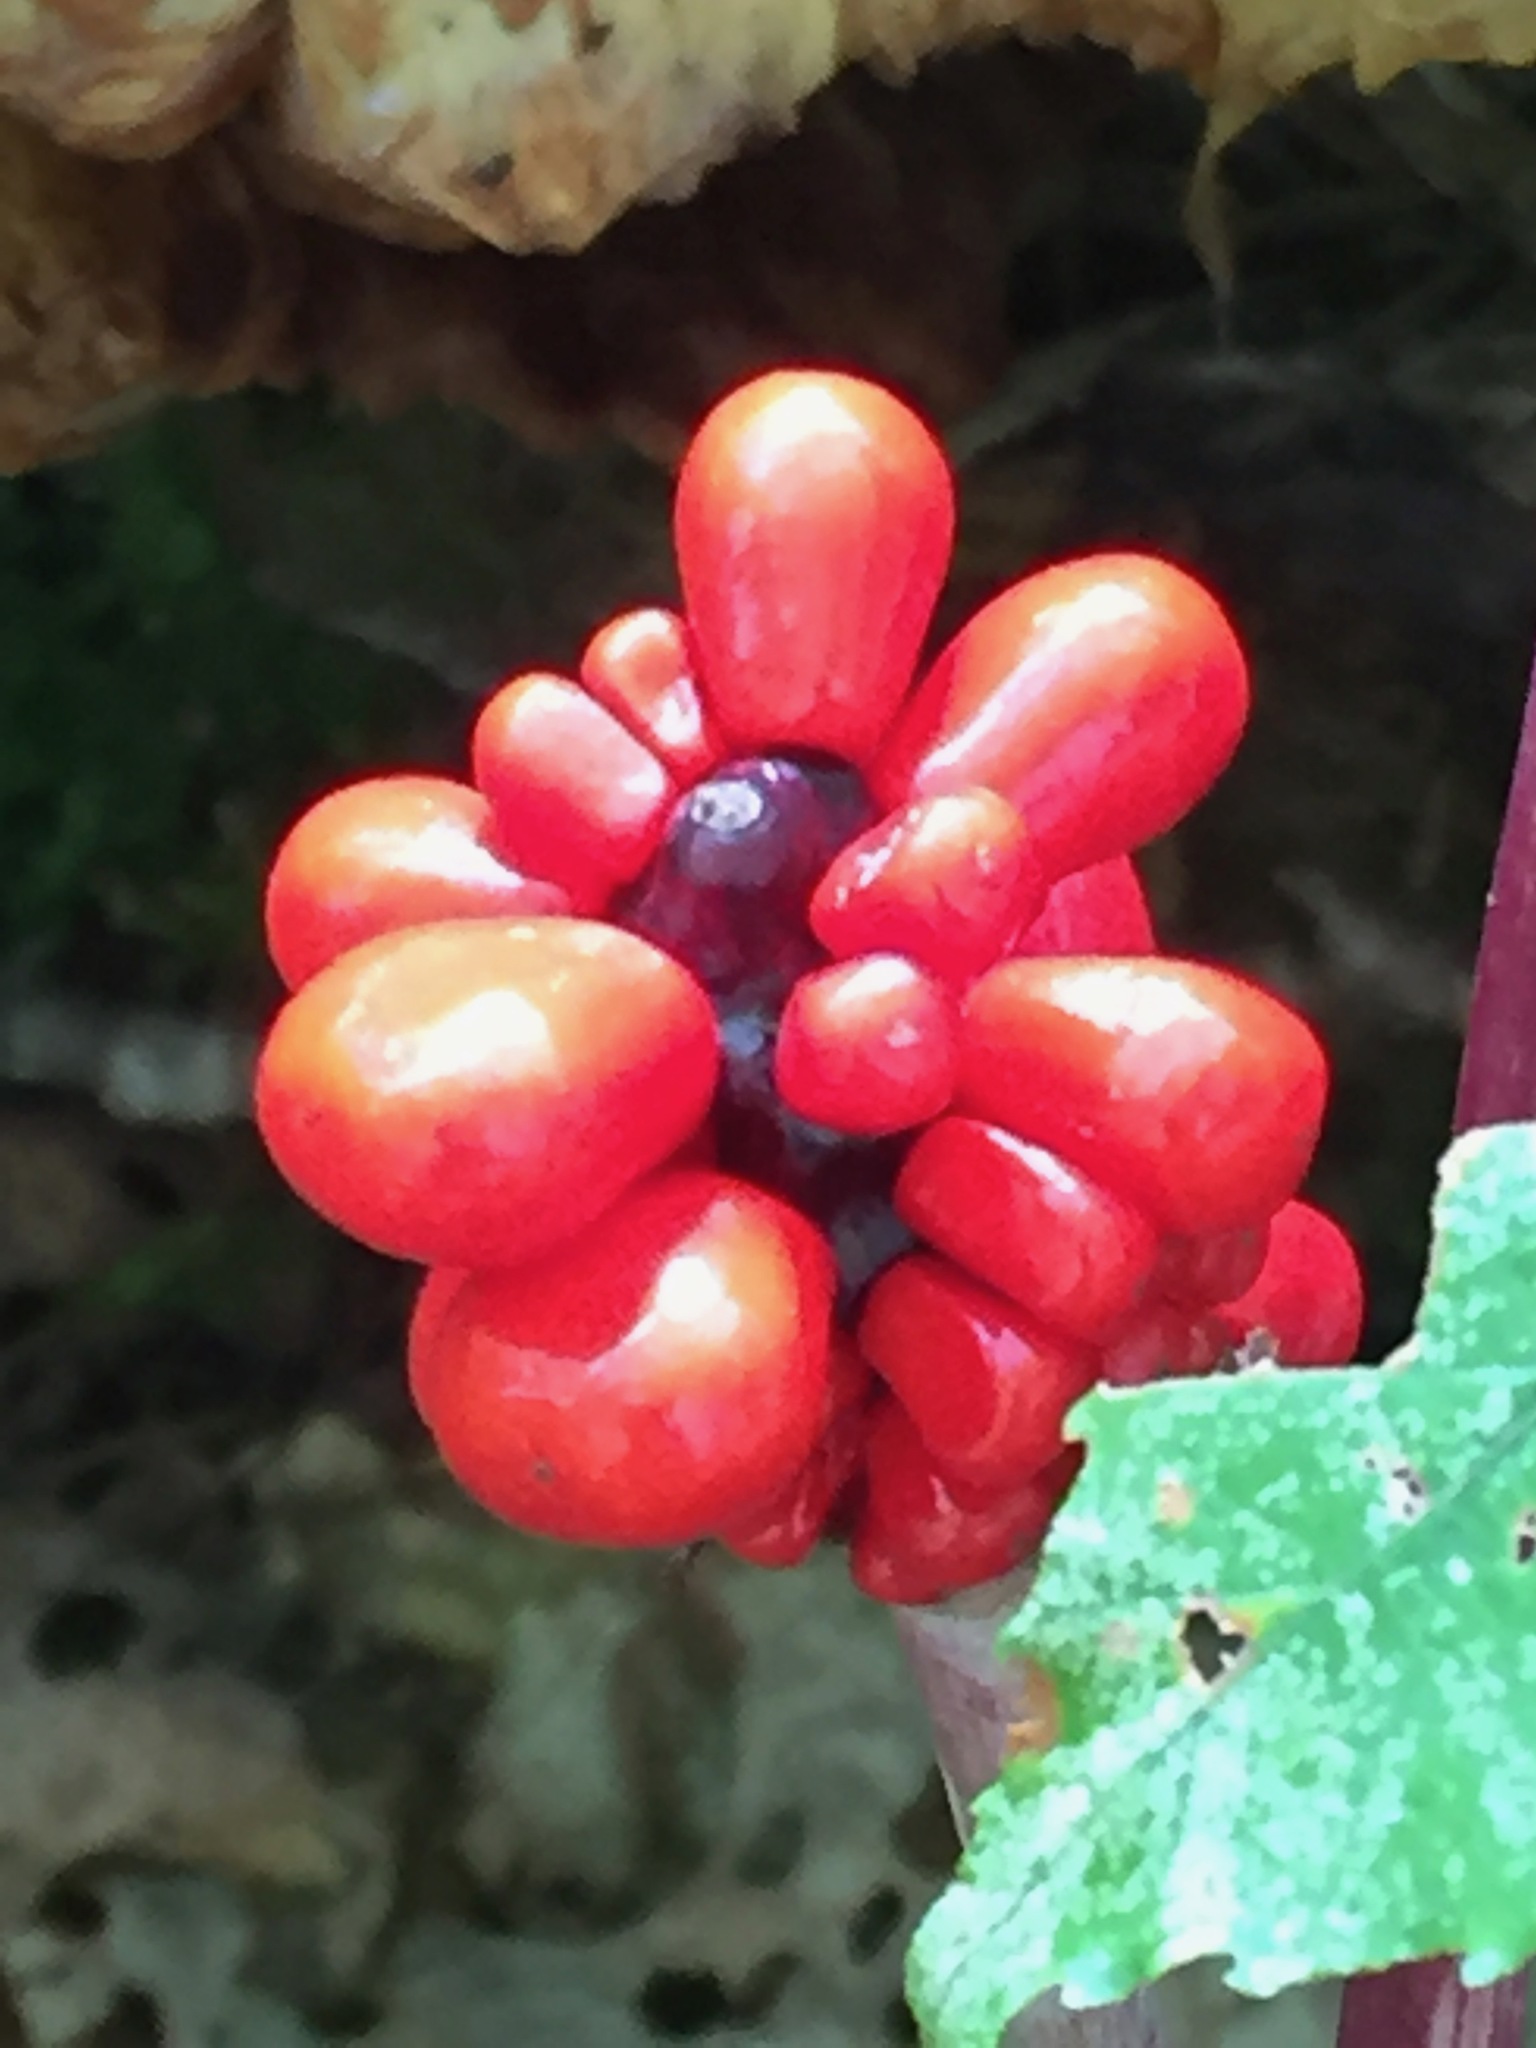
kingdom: Plantae
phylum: Tracheophyta
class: Liliopsida
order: Alismatales
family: Araceae
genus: Arisaema
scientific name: Arisaema triphyllum
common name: Jack-in-the-pulpit
